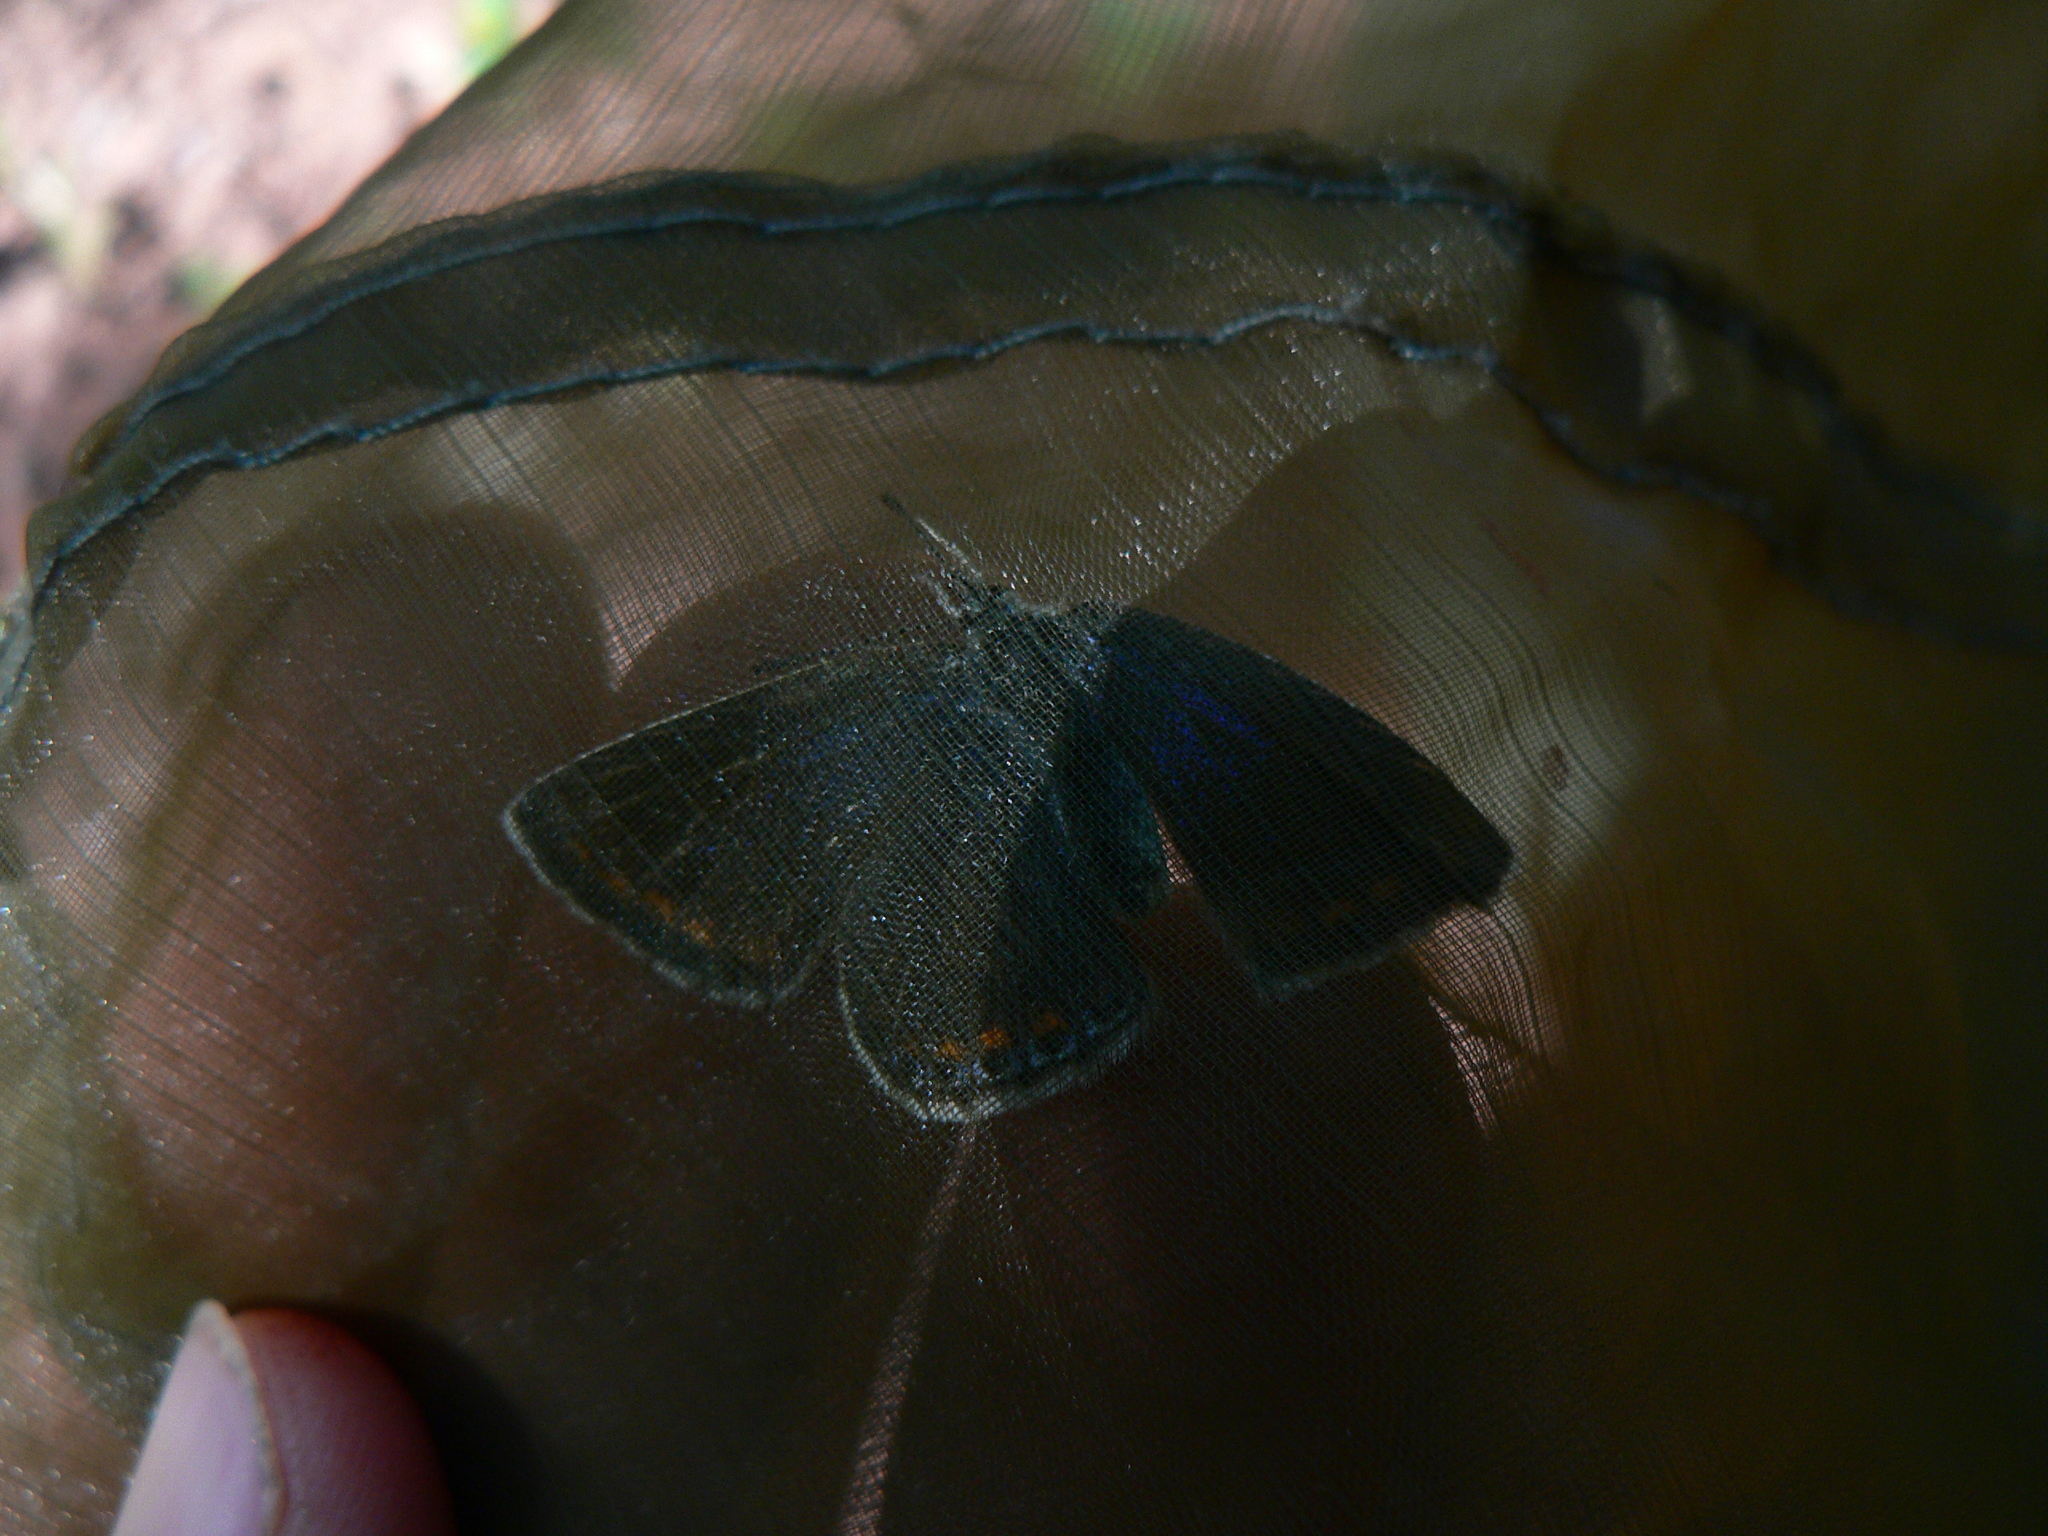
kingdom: Animalia
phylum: Arthropoda
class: Insecta
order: Lepidoptera
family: Lycaenidae
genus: Polyommatus
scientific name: Polyommatus icarus
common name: Common blue
